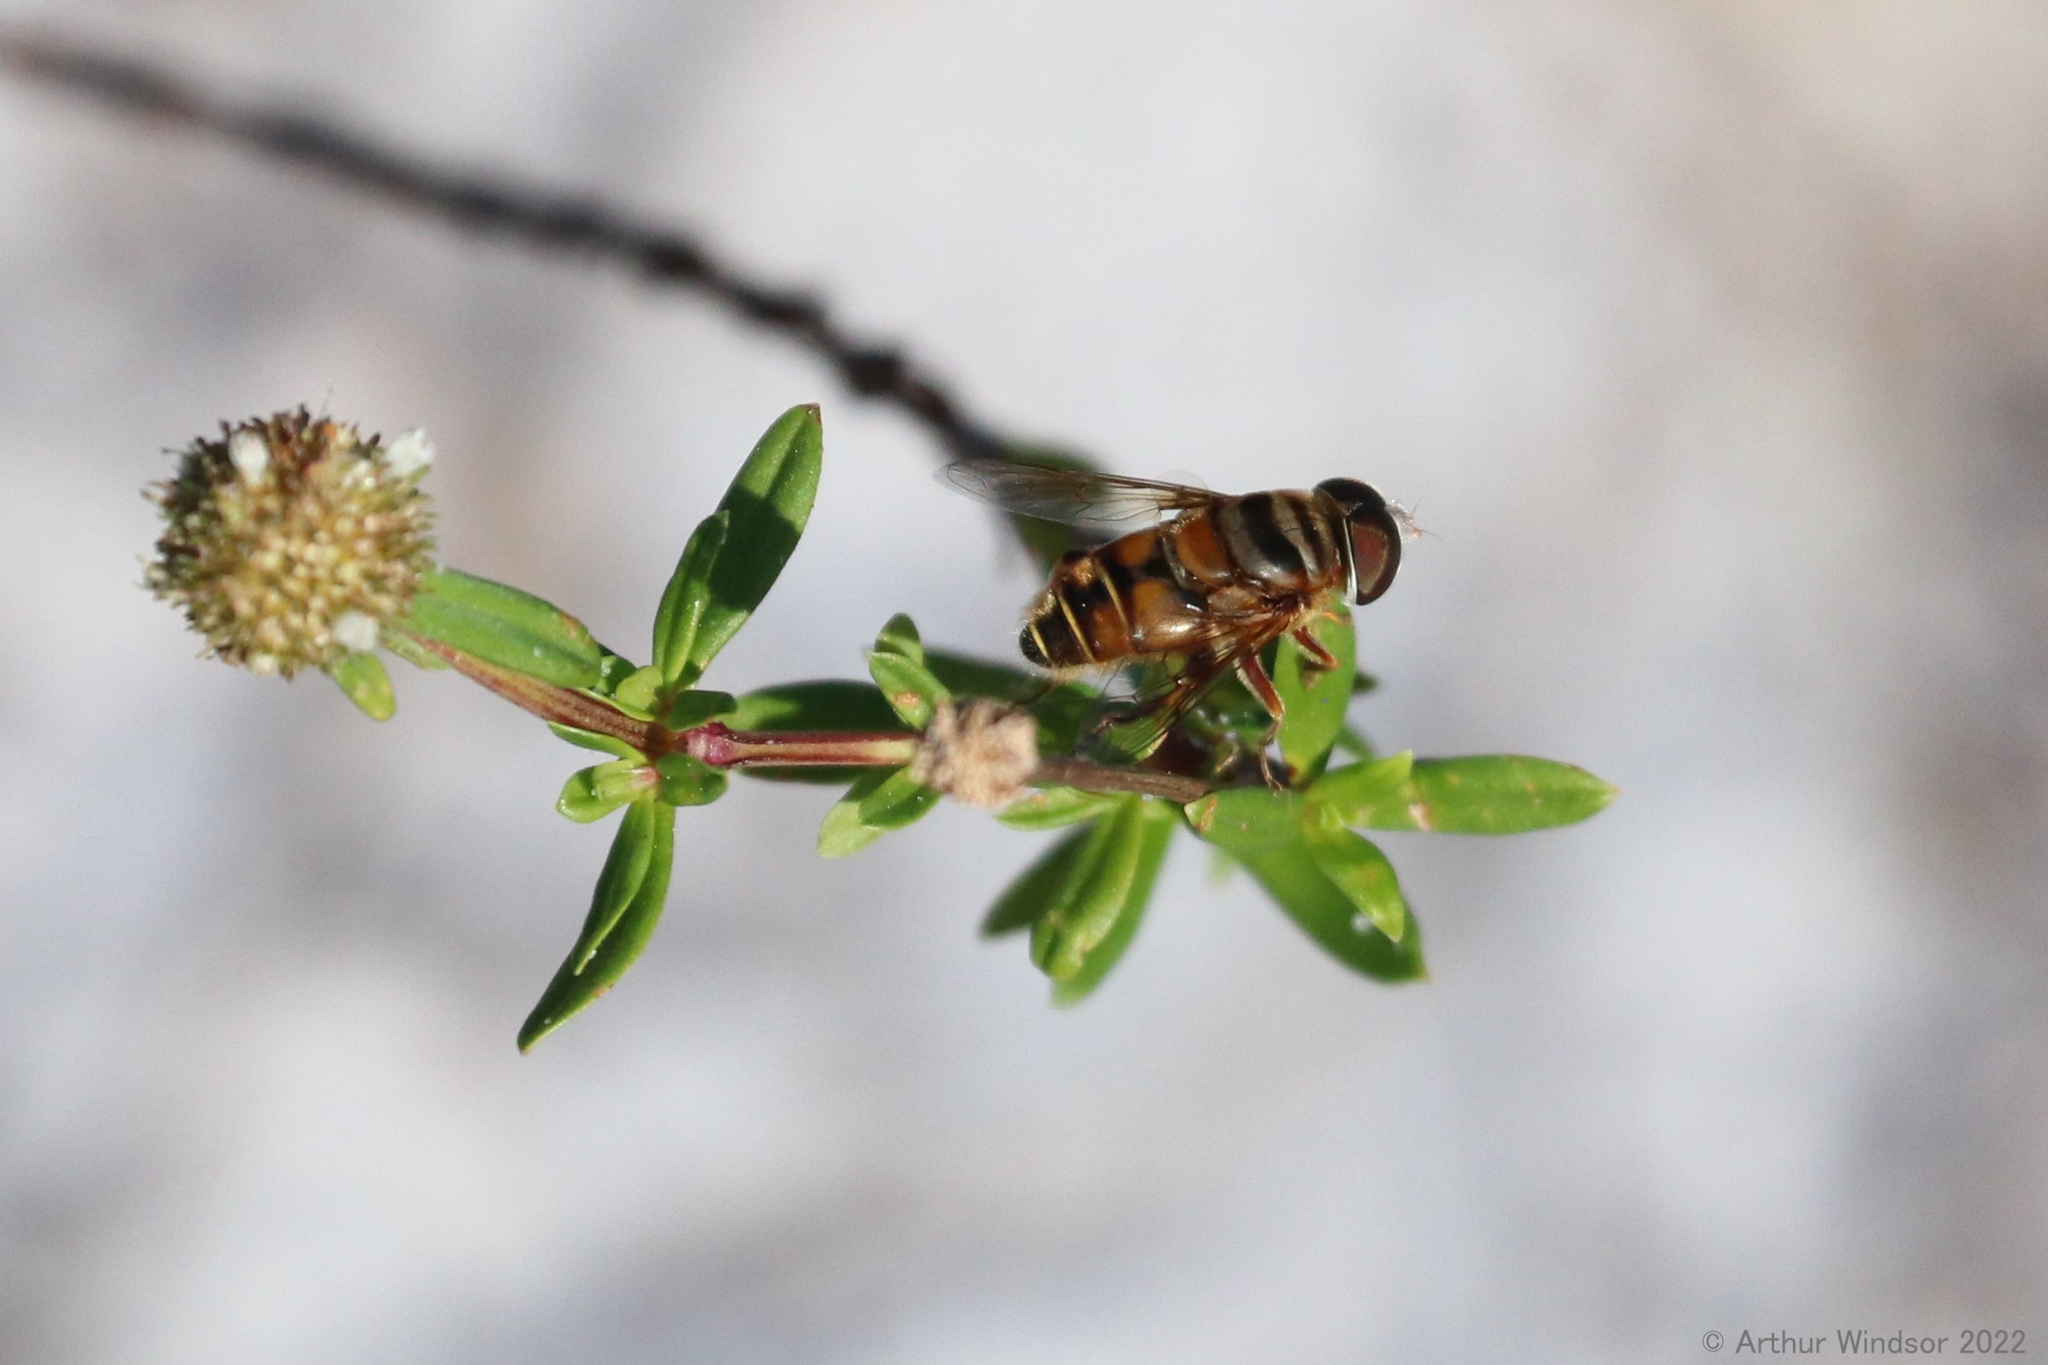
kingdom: Animalia
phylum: Arthropoda
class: Insecta
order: Diptera
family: Syrphidae
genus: Palpada
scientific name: Palpada vinetorum
